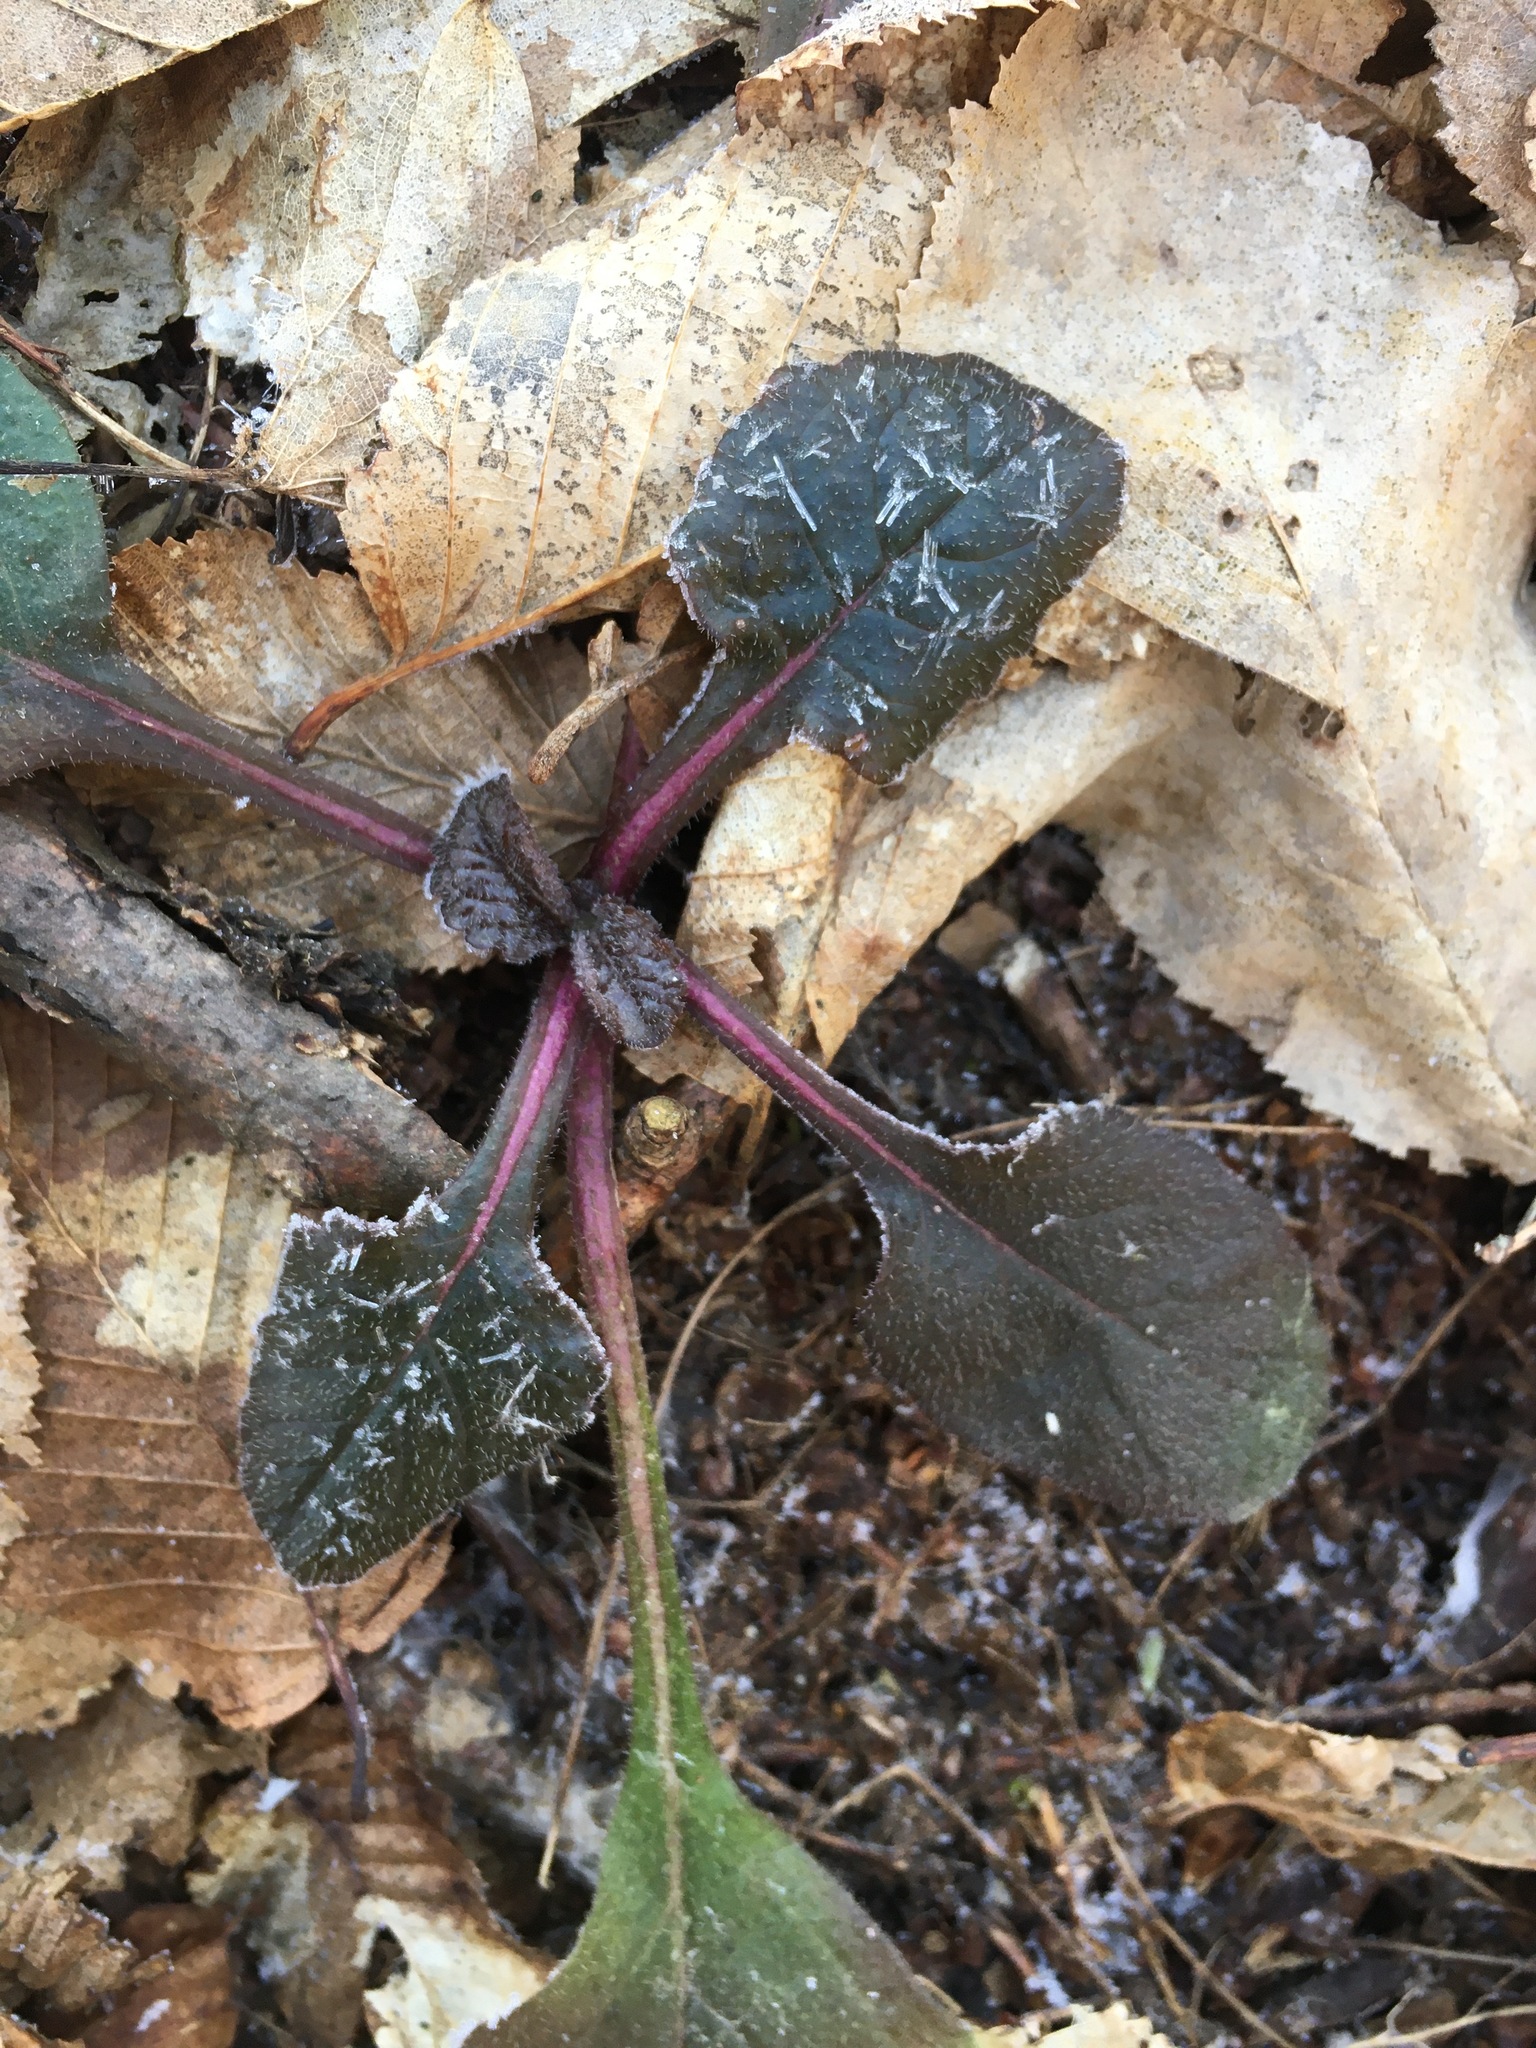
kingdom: Plantae
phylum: Tracheophyta
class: Magnoliopsida
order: Lamiales
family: Lamiaceae
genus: Ajuga
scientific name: Ajuga reptans
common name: Bugle
